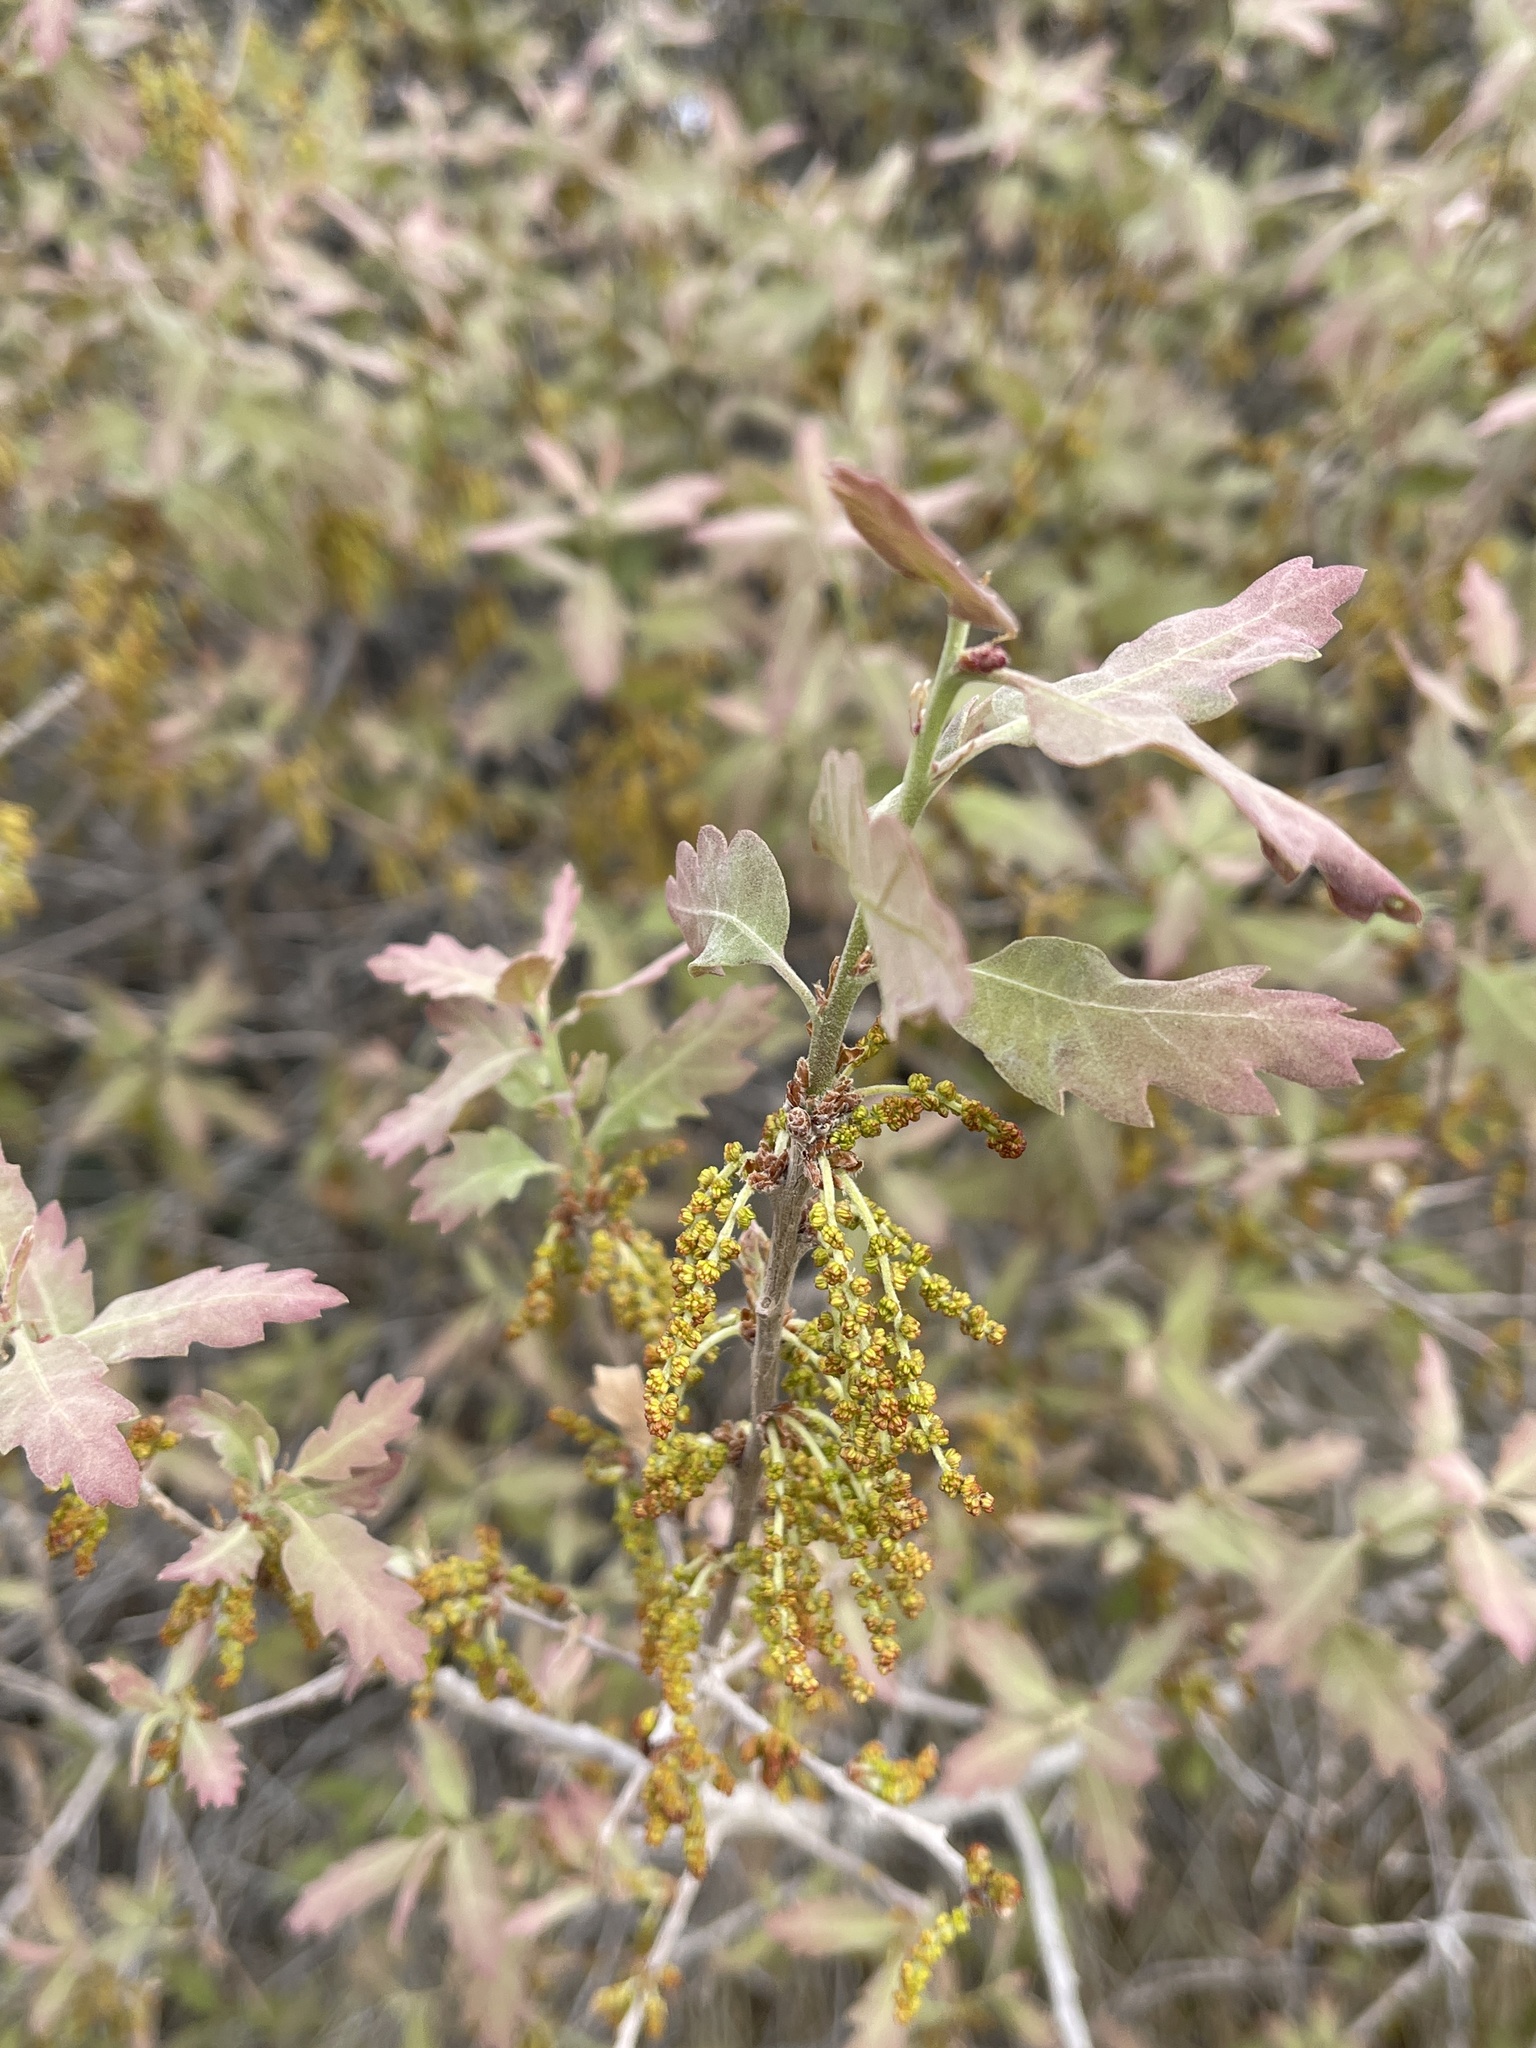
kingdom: Plantae
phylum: Tracheophyta
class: Magnoliopsida
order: Fagales
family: Fagaceae
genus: Quercus
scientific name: Quercus gambelii
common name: Gambel oak
